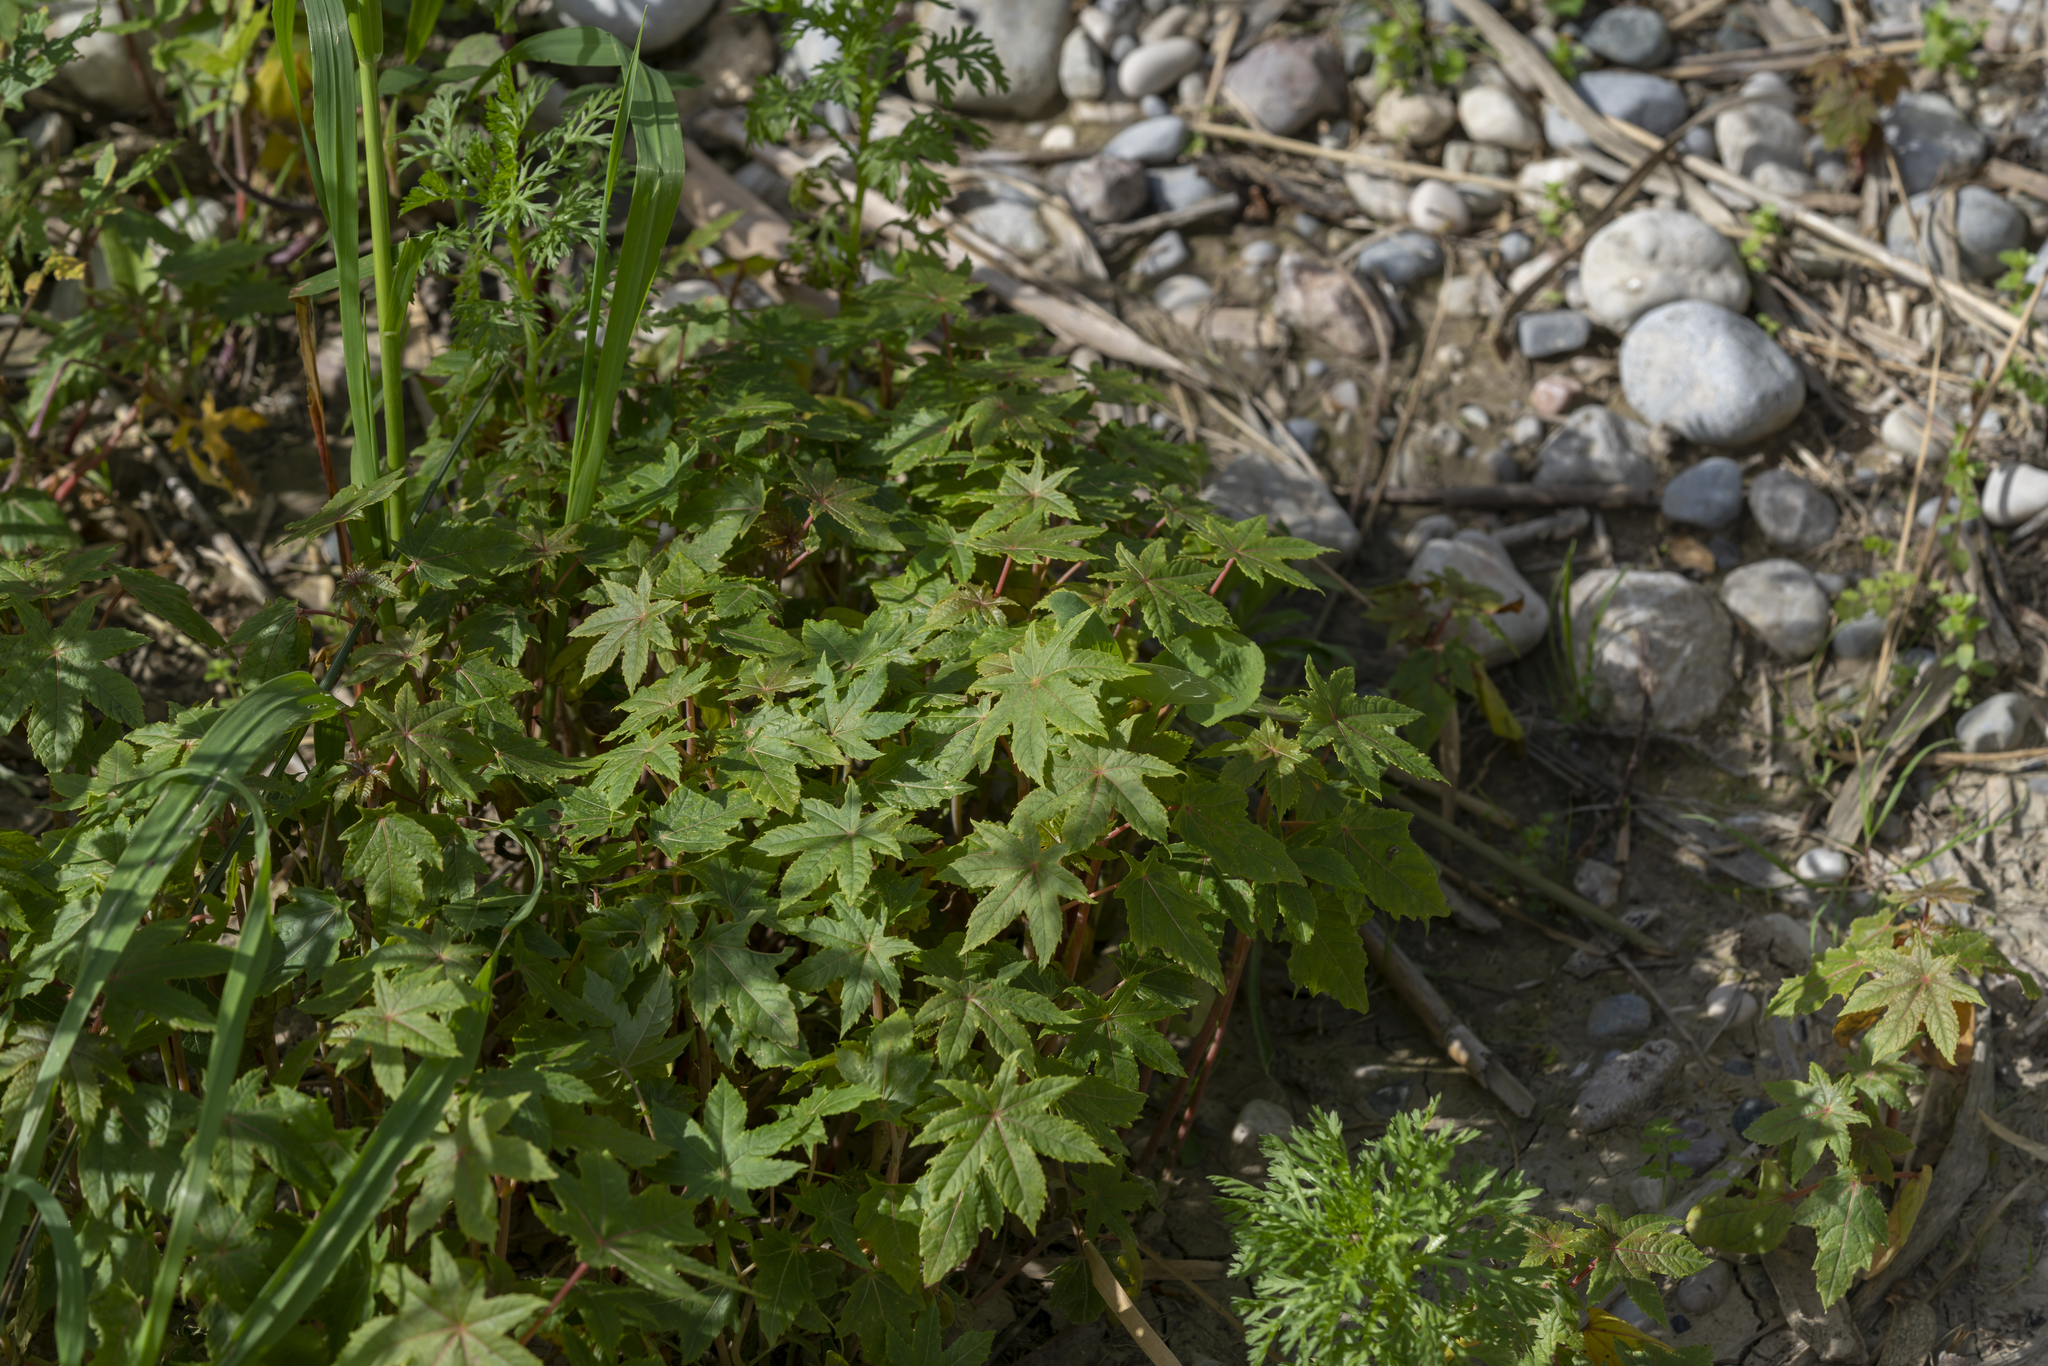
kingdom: Plantae
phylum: Tracheophyta
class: Magnoliopsida
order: Malpighiales
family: Euphorbiaceae
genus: Ricinus
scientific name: Ricinus communis
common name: Castor-oil-plant
